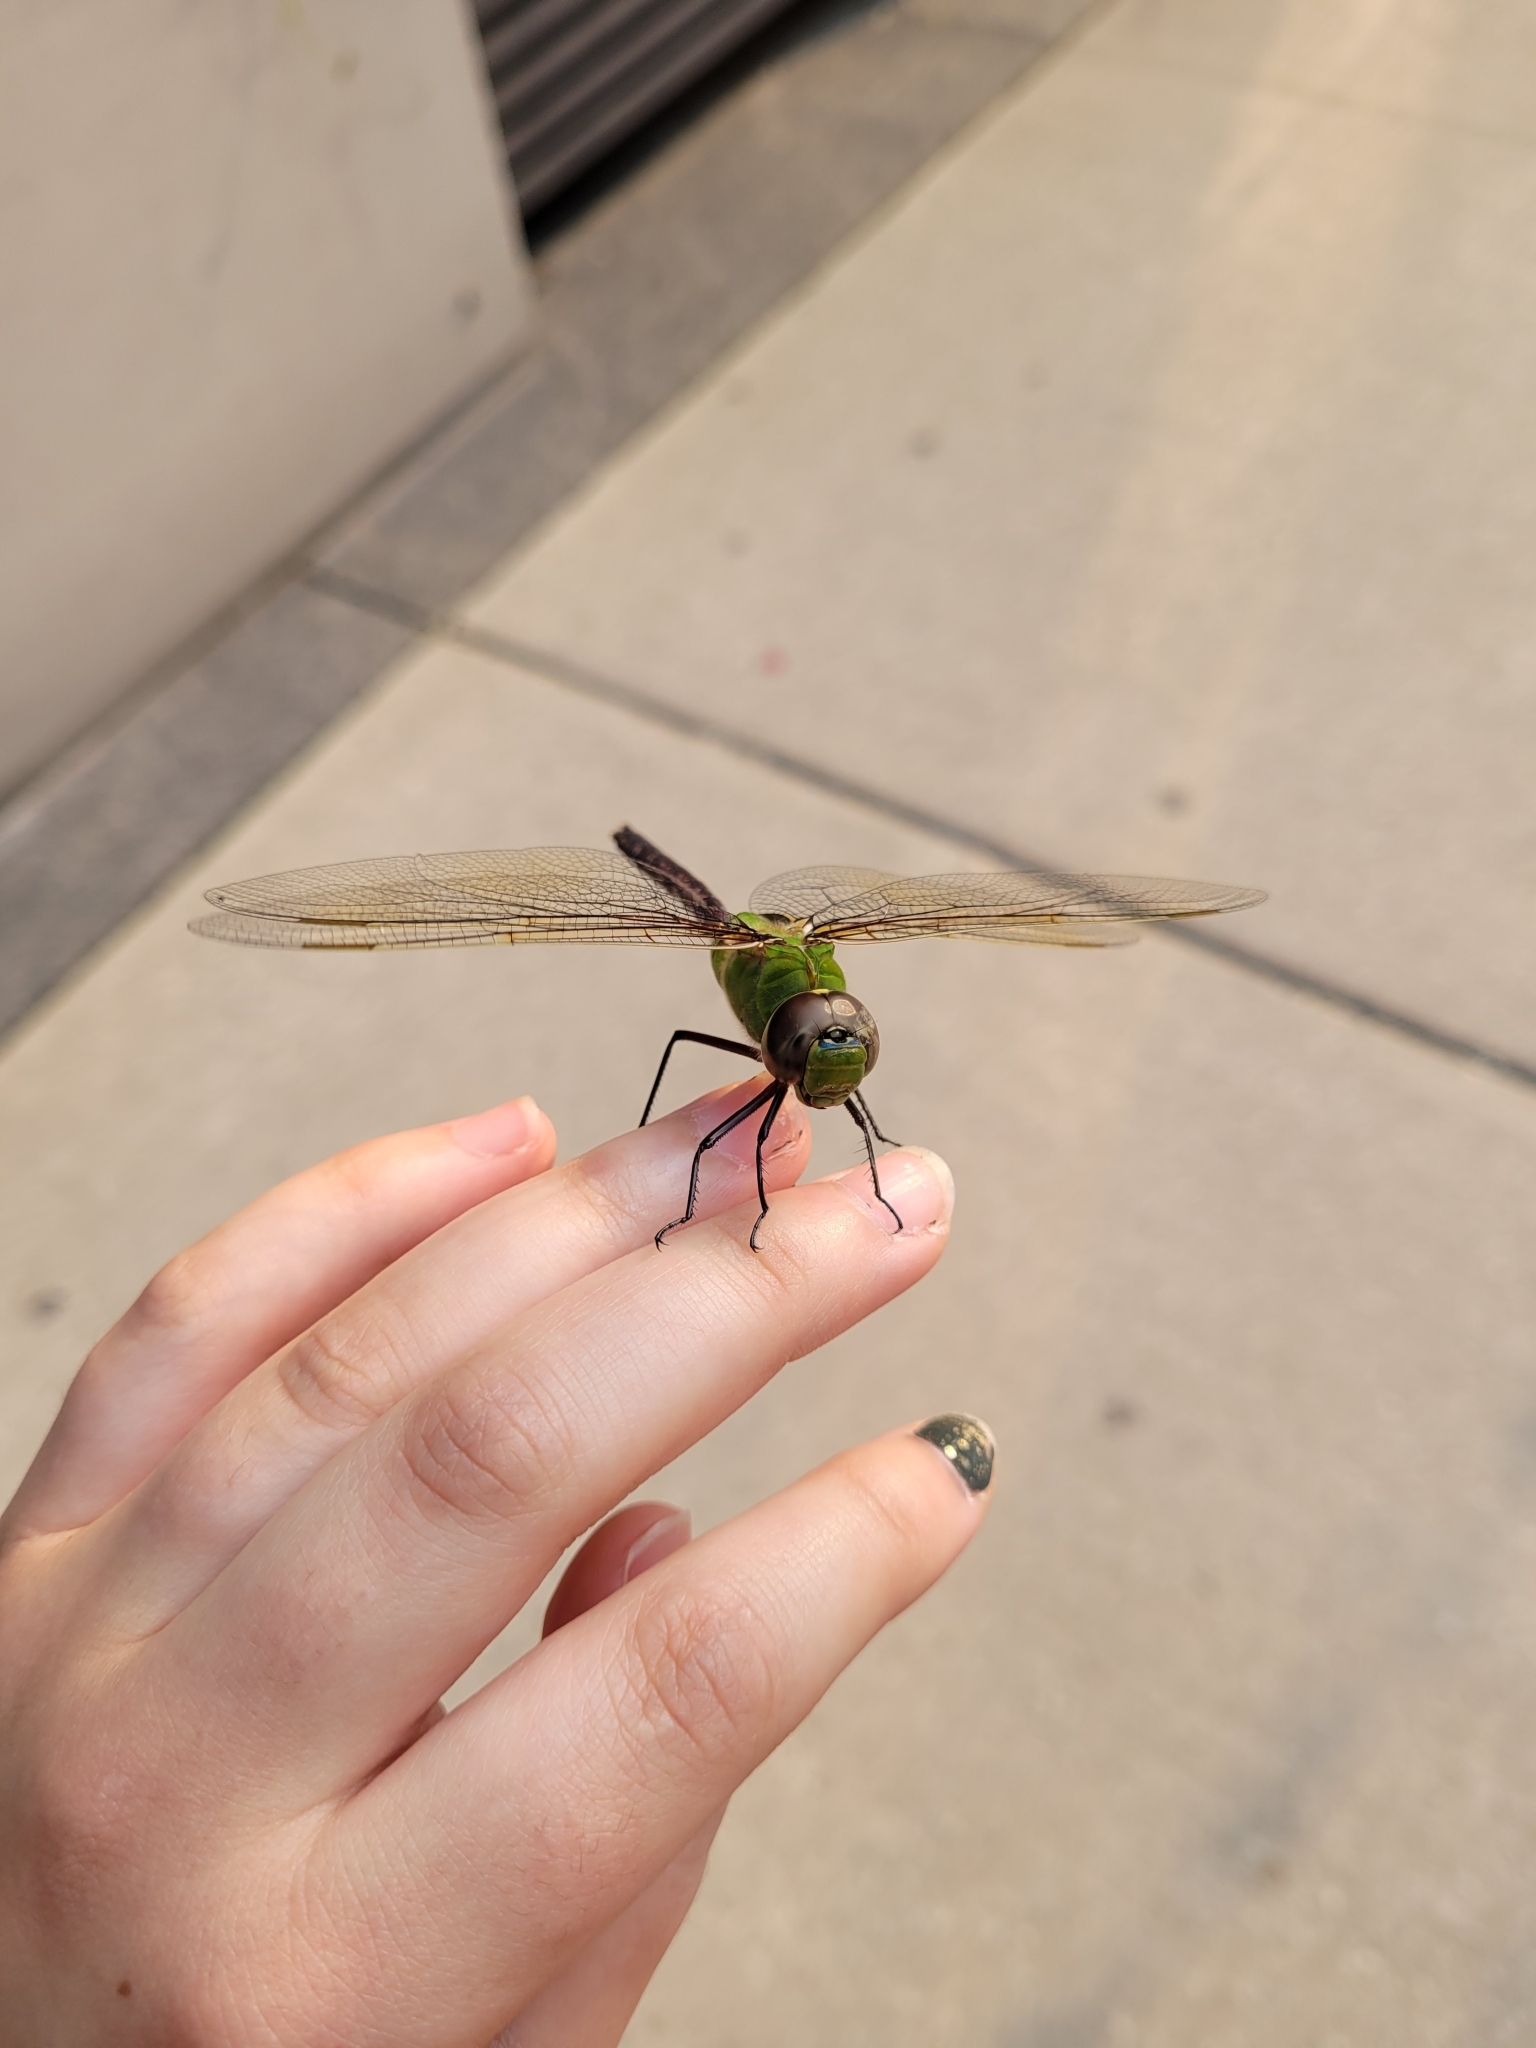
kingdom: Animalia
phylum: Arthropoda
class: Insecta
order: Odonata
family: Aeshnidae
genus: Anax
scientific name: Anax junius
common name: Common green darner
